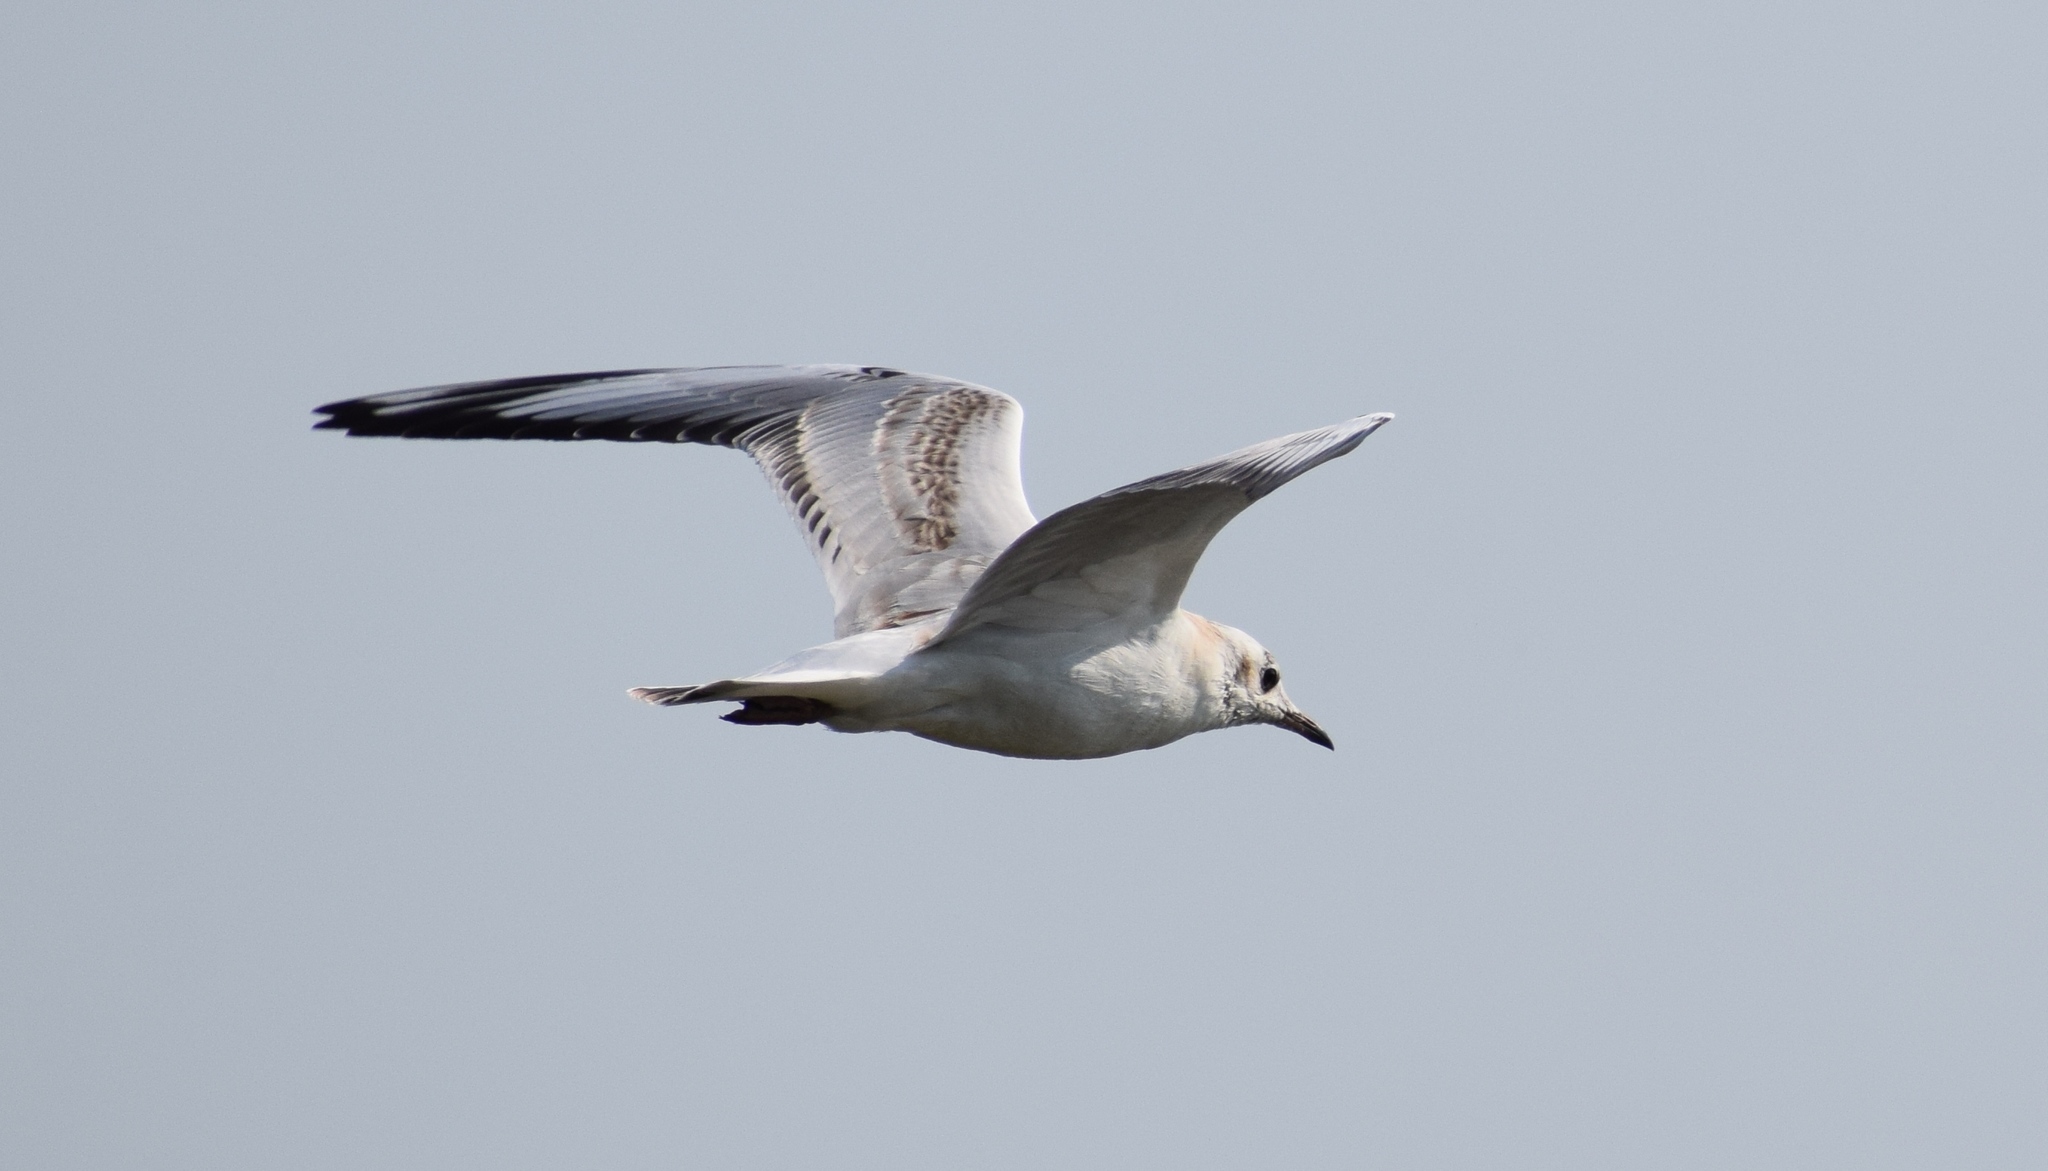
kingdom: Animalia
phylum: Chordata
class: Aves
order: Charadriiformes
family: Laridae
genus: Chroicocephalus
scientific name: Chroicocephalus ridibundus
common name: Black-headed gull
